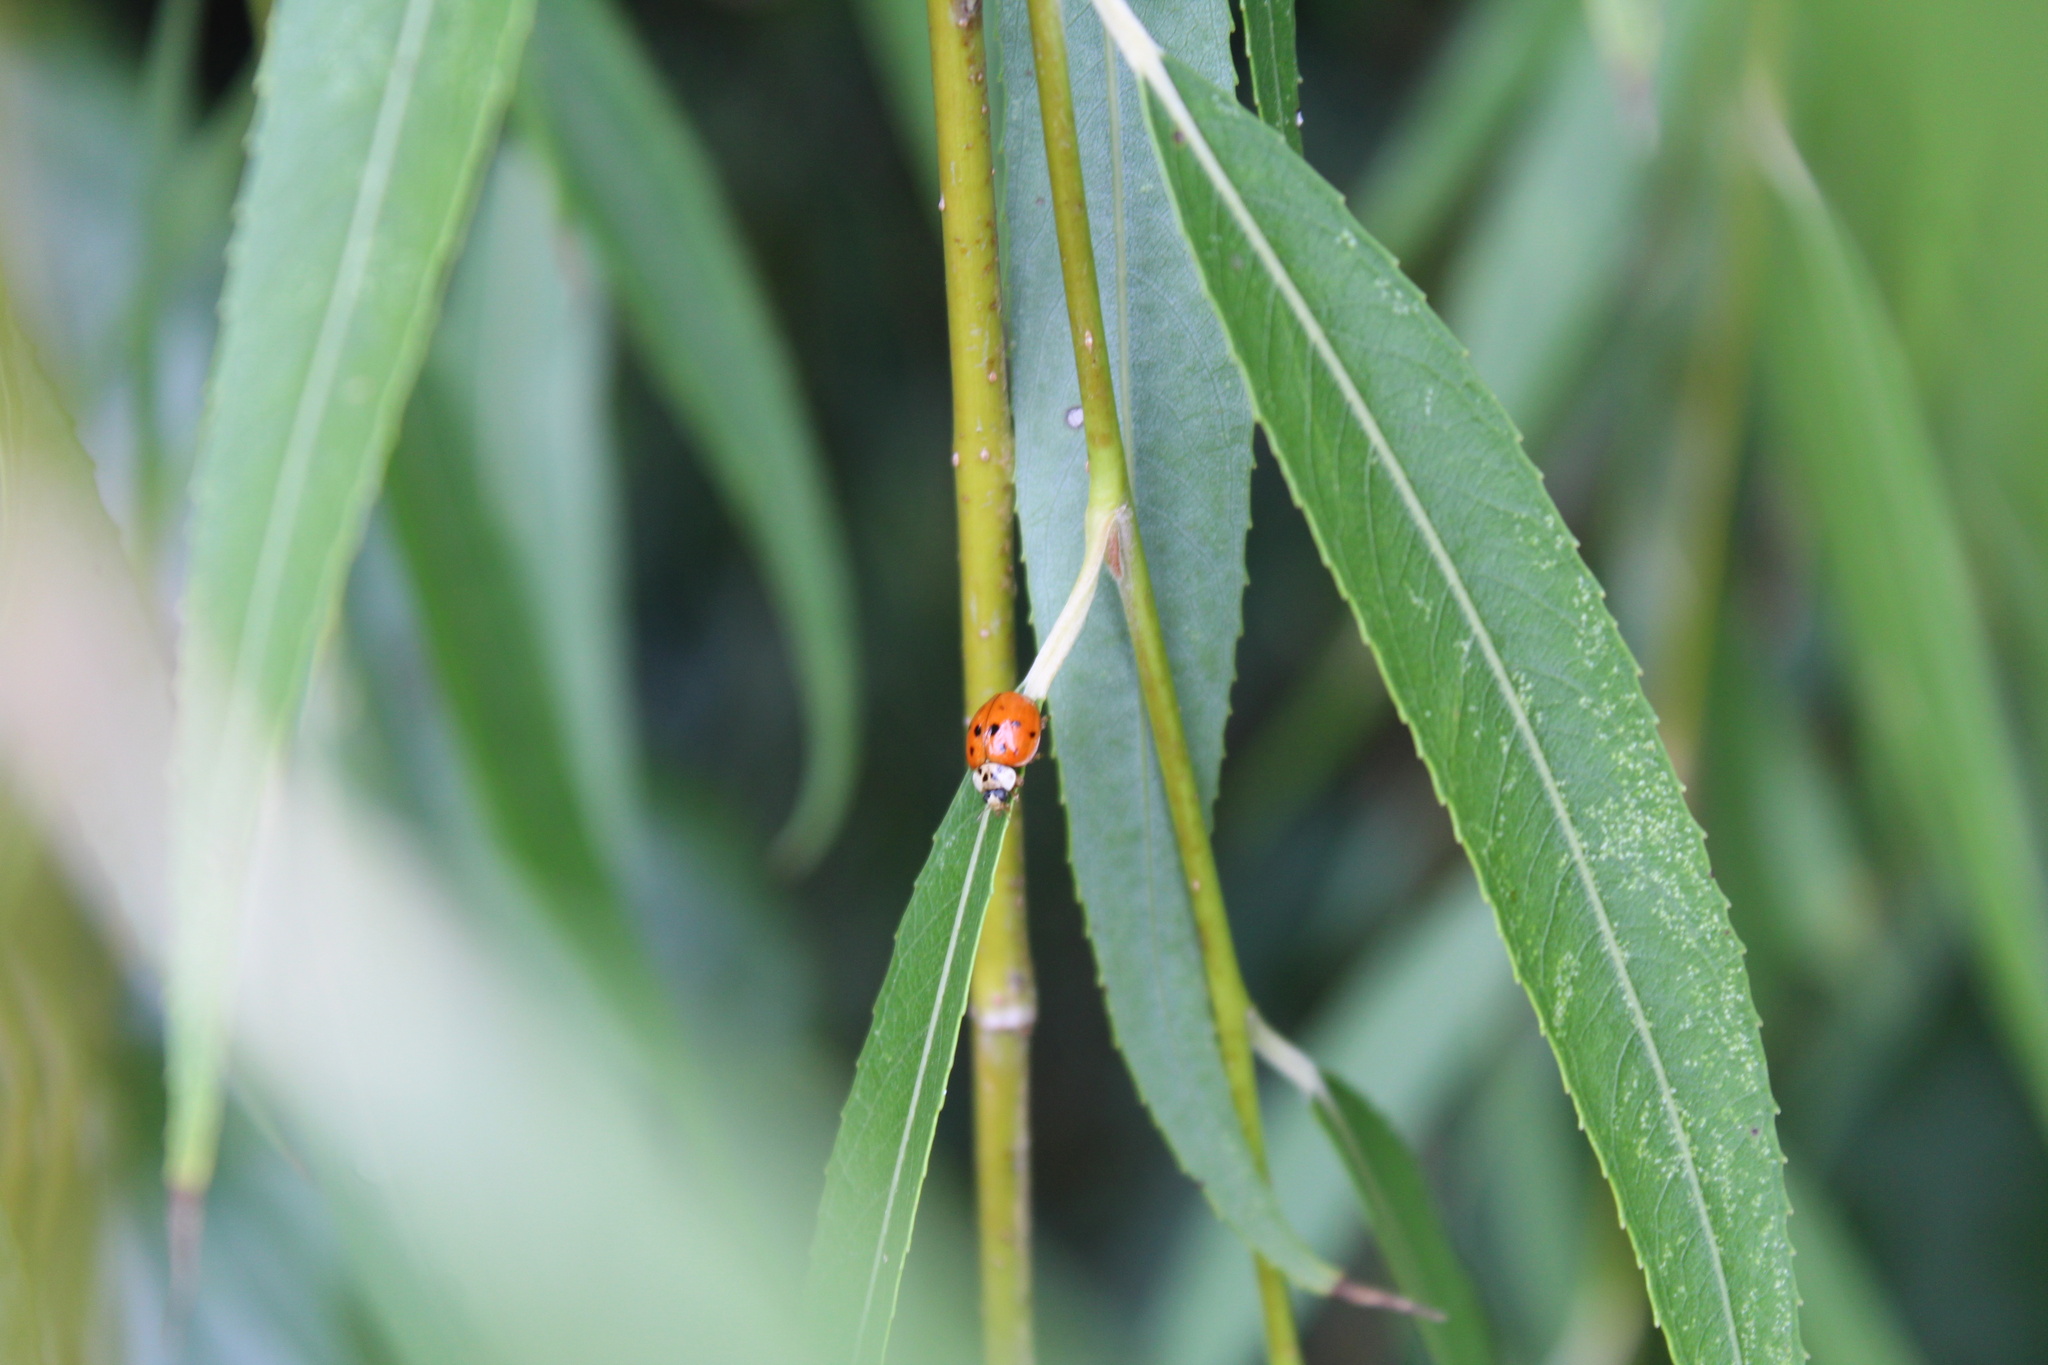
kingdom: Animalia
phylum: Arthropoda
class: Insecta
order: Coleoptera
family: Coccinellidae
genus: Harmonia
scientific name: Harmonia axyridis
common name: Harlequin ladybird
